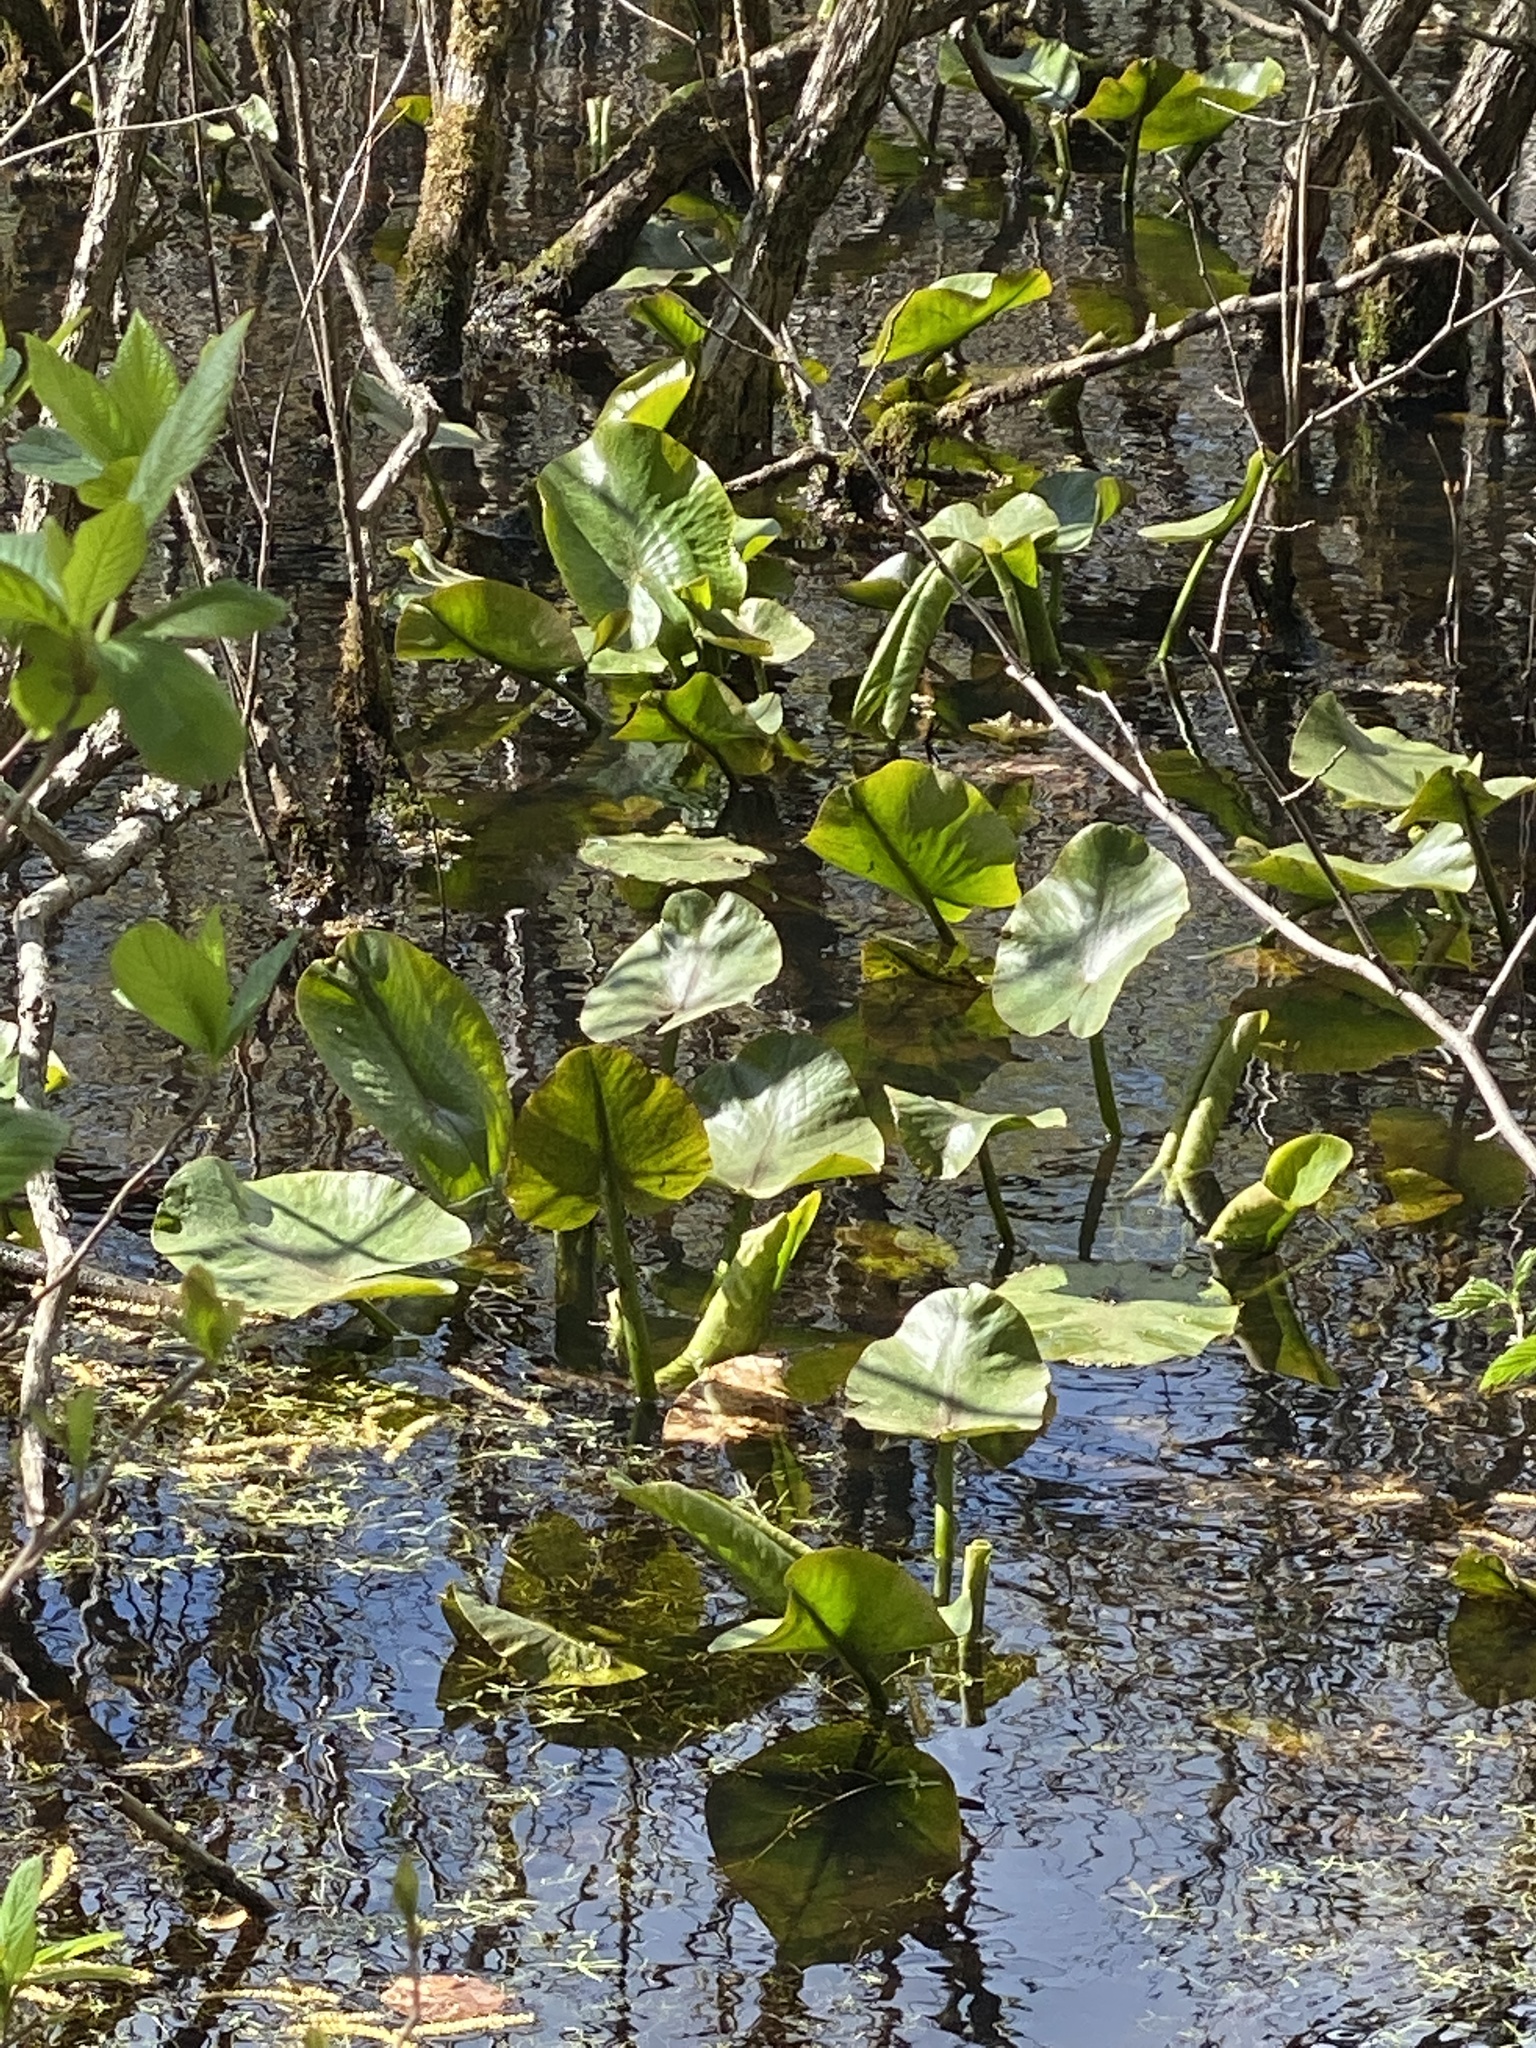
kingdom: Plantae
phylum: Tracheophyta
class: Magnoliopsida
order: Nymphaeales
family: Nymphaeaceae
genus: Nuphar
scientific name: Nuphar advena
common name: Spatter-dock
